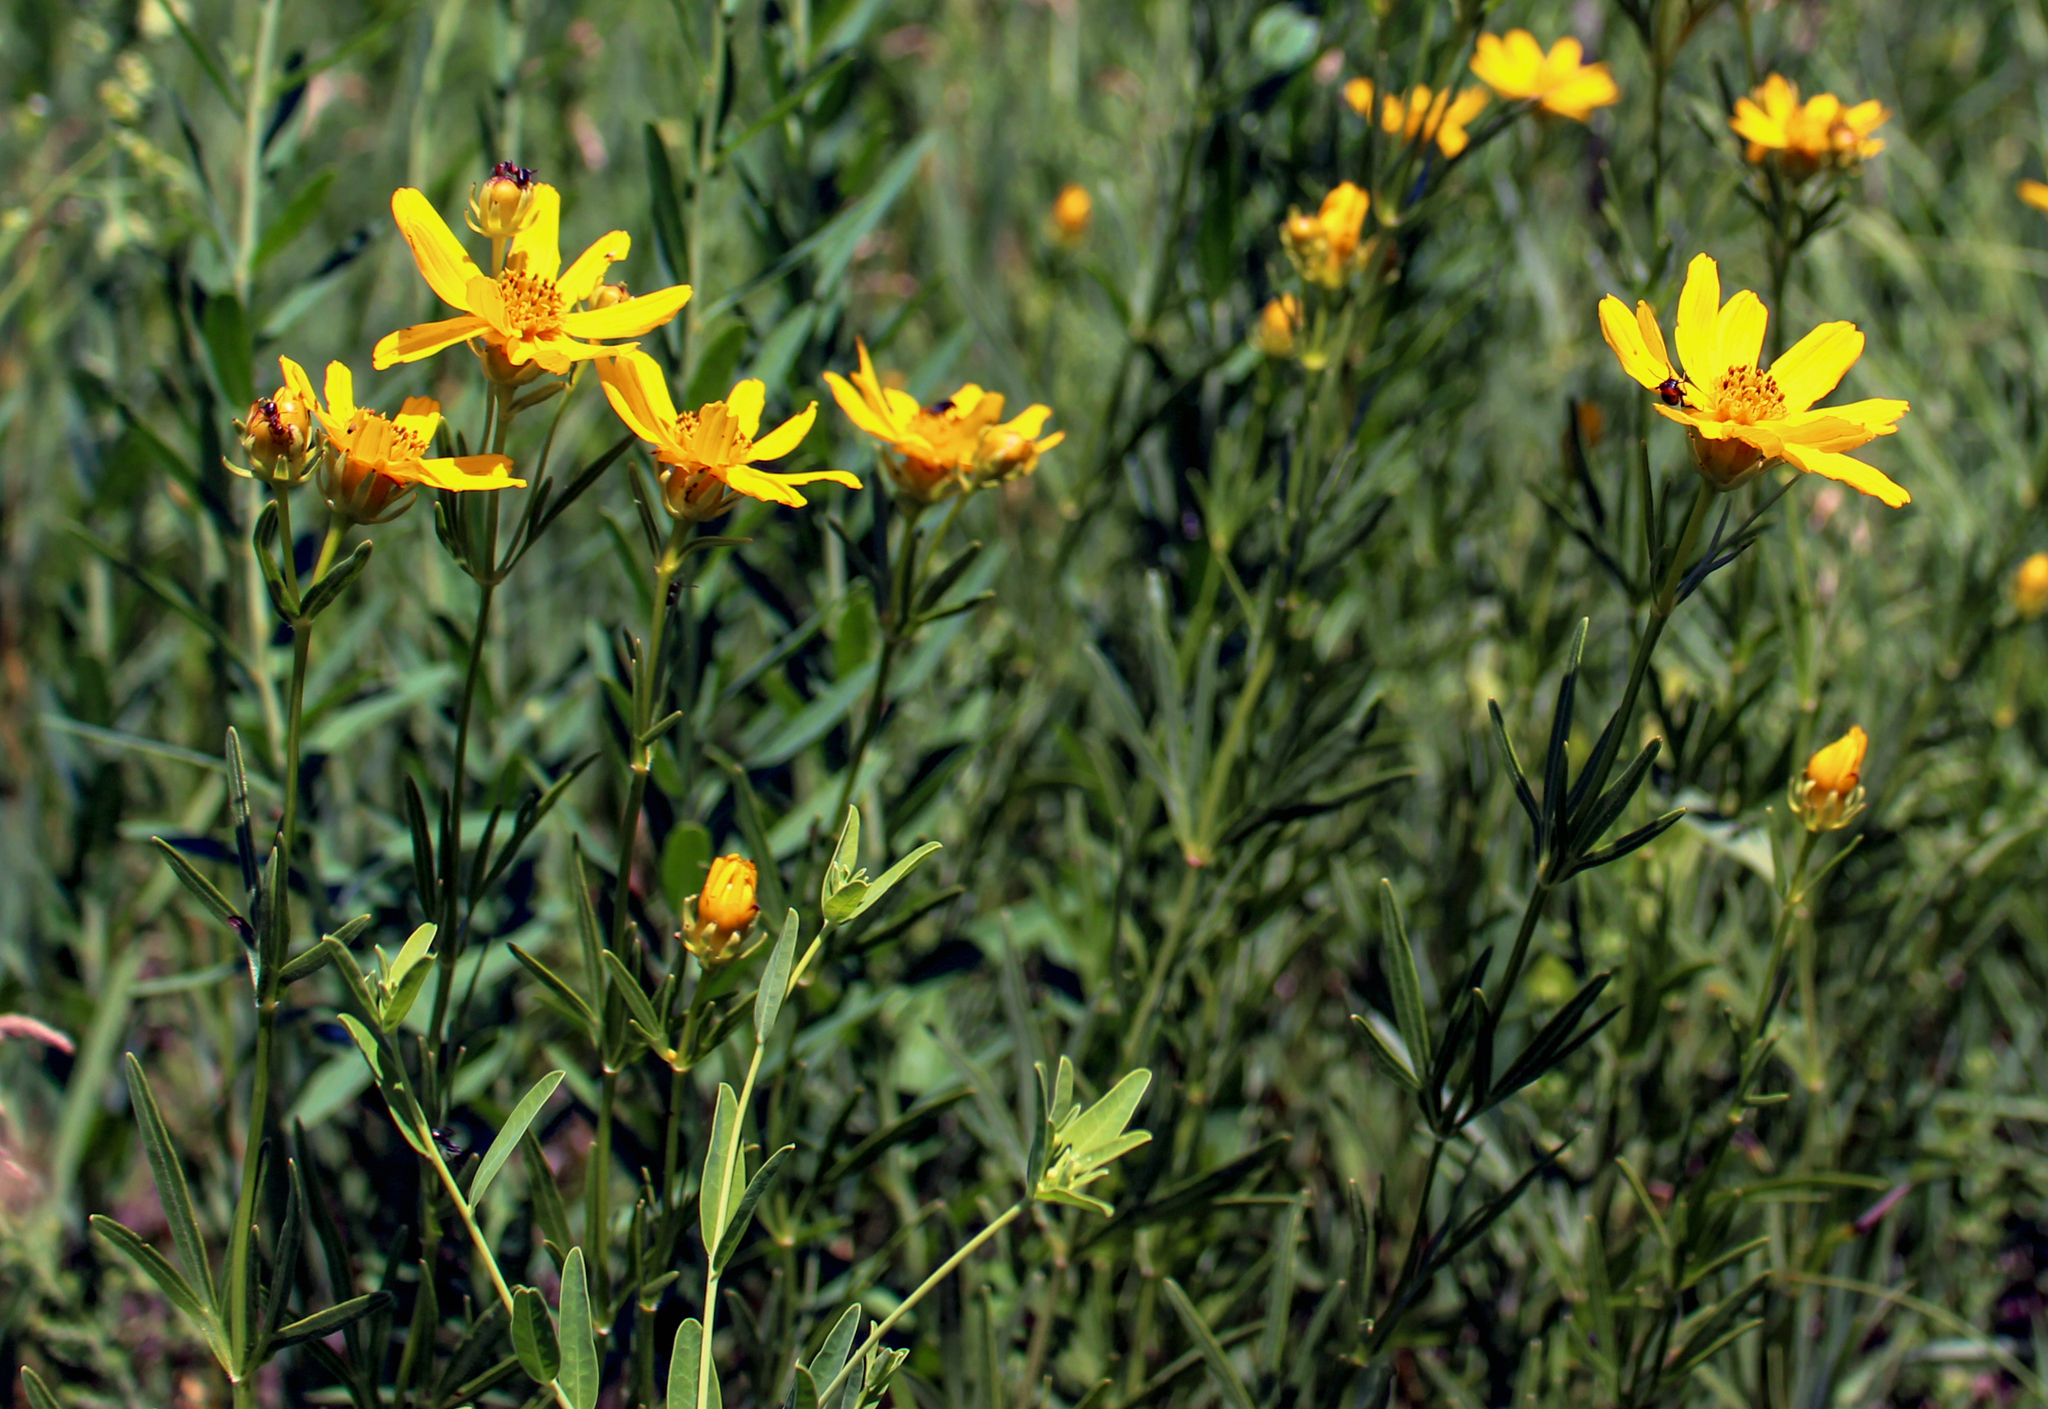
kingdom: Plantae
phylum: Tracheophyta
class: Magnoliopsida
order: Asterales
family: Asteraceae
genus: Coreopsis
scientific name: Coreopsis palmata
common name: Prairie coreopsis
